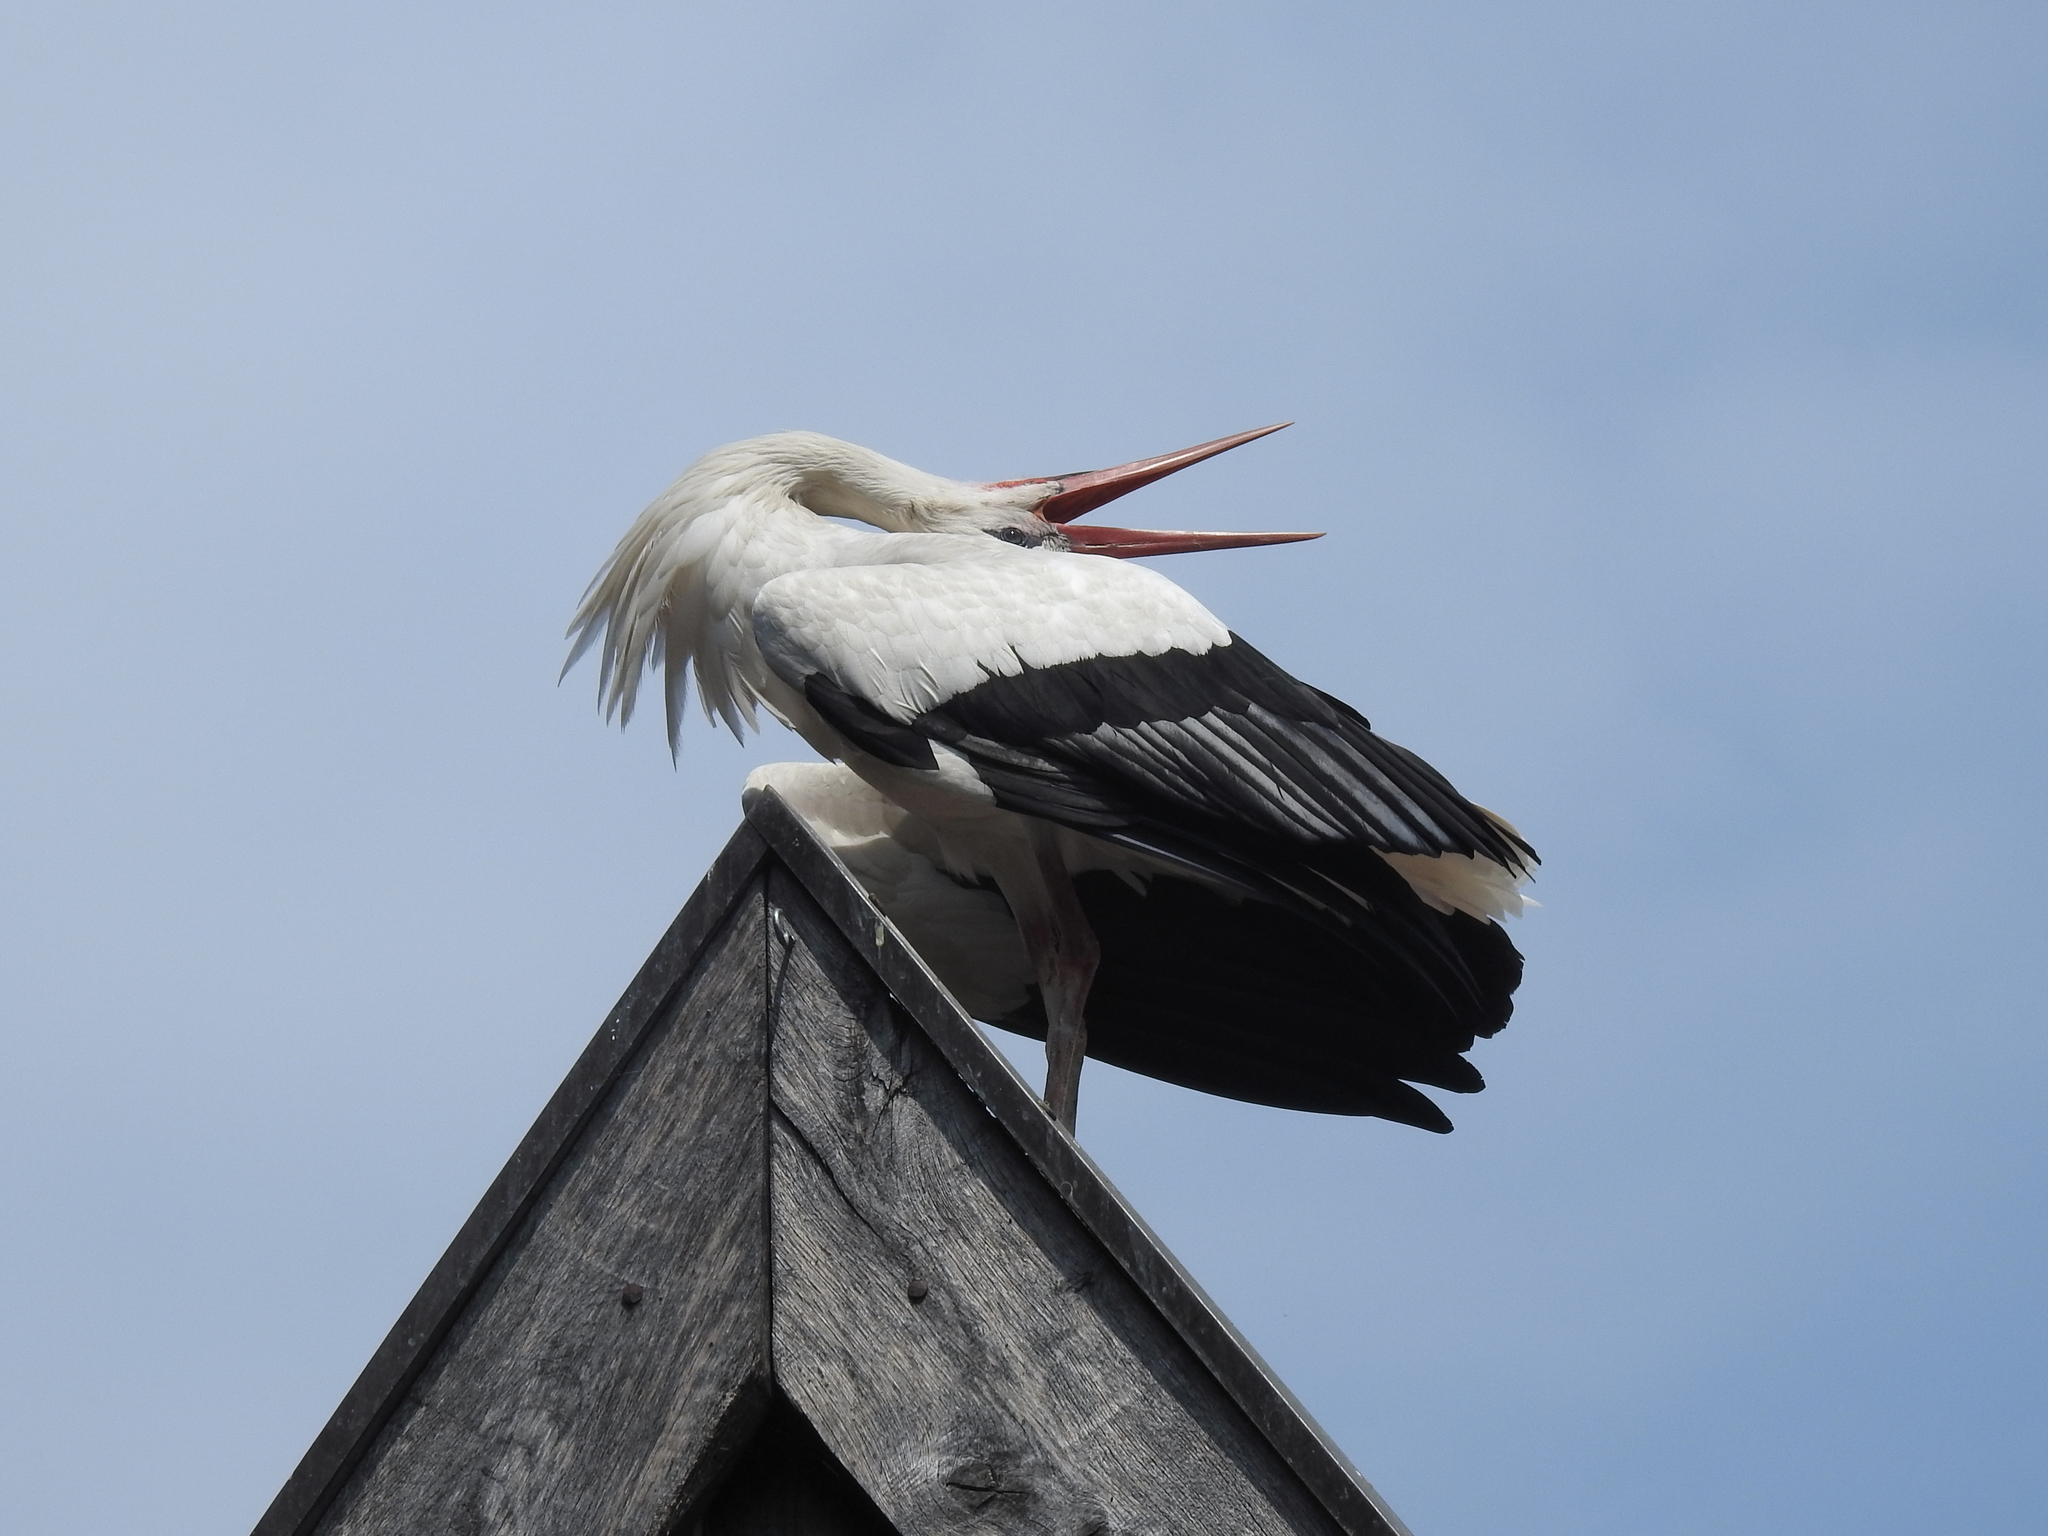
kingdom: Animalia
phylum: Chordata
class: Aves
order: Ciconiiformes
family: Ciconiidae
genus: Ciconia
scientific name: Ciconia ciconia
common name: White stork
